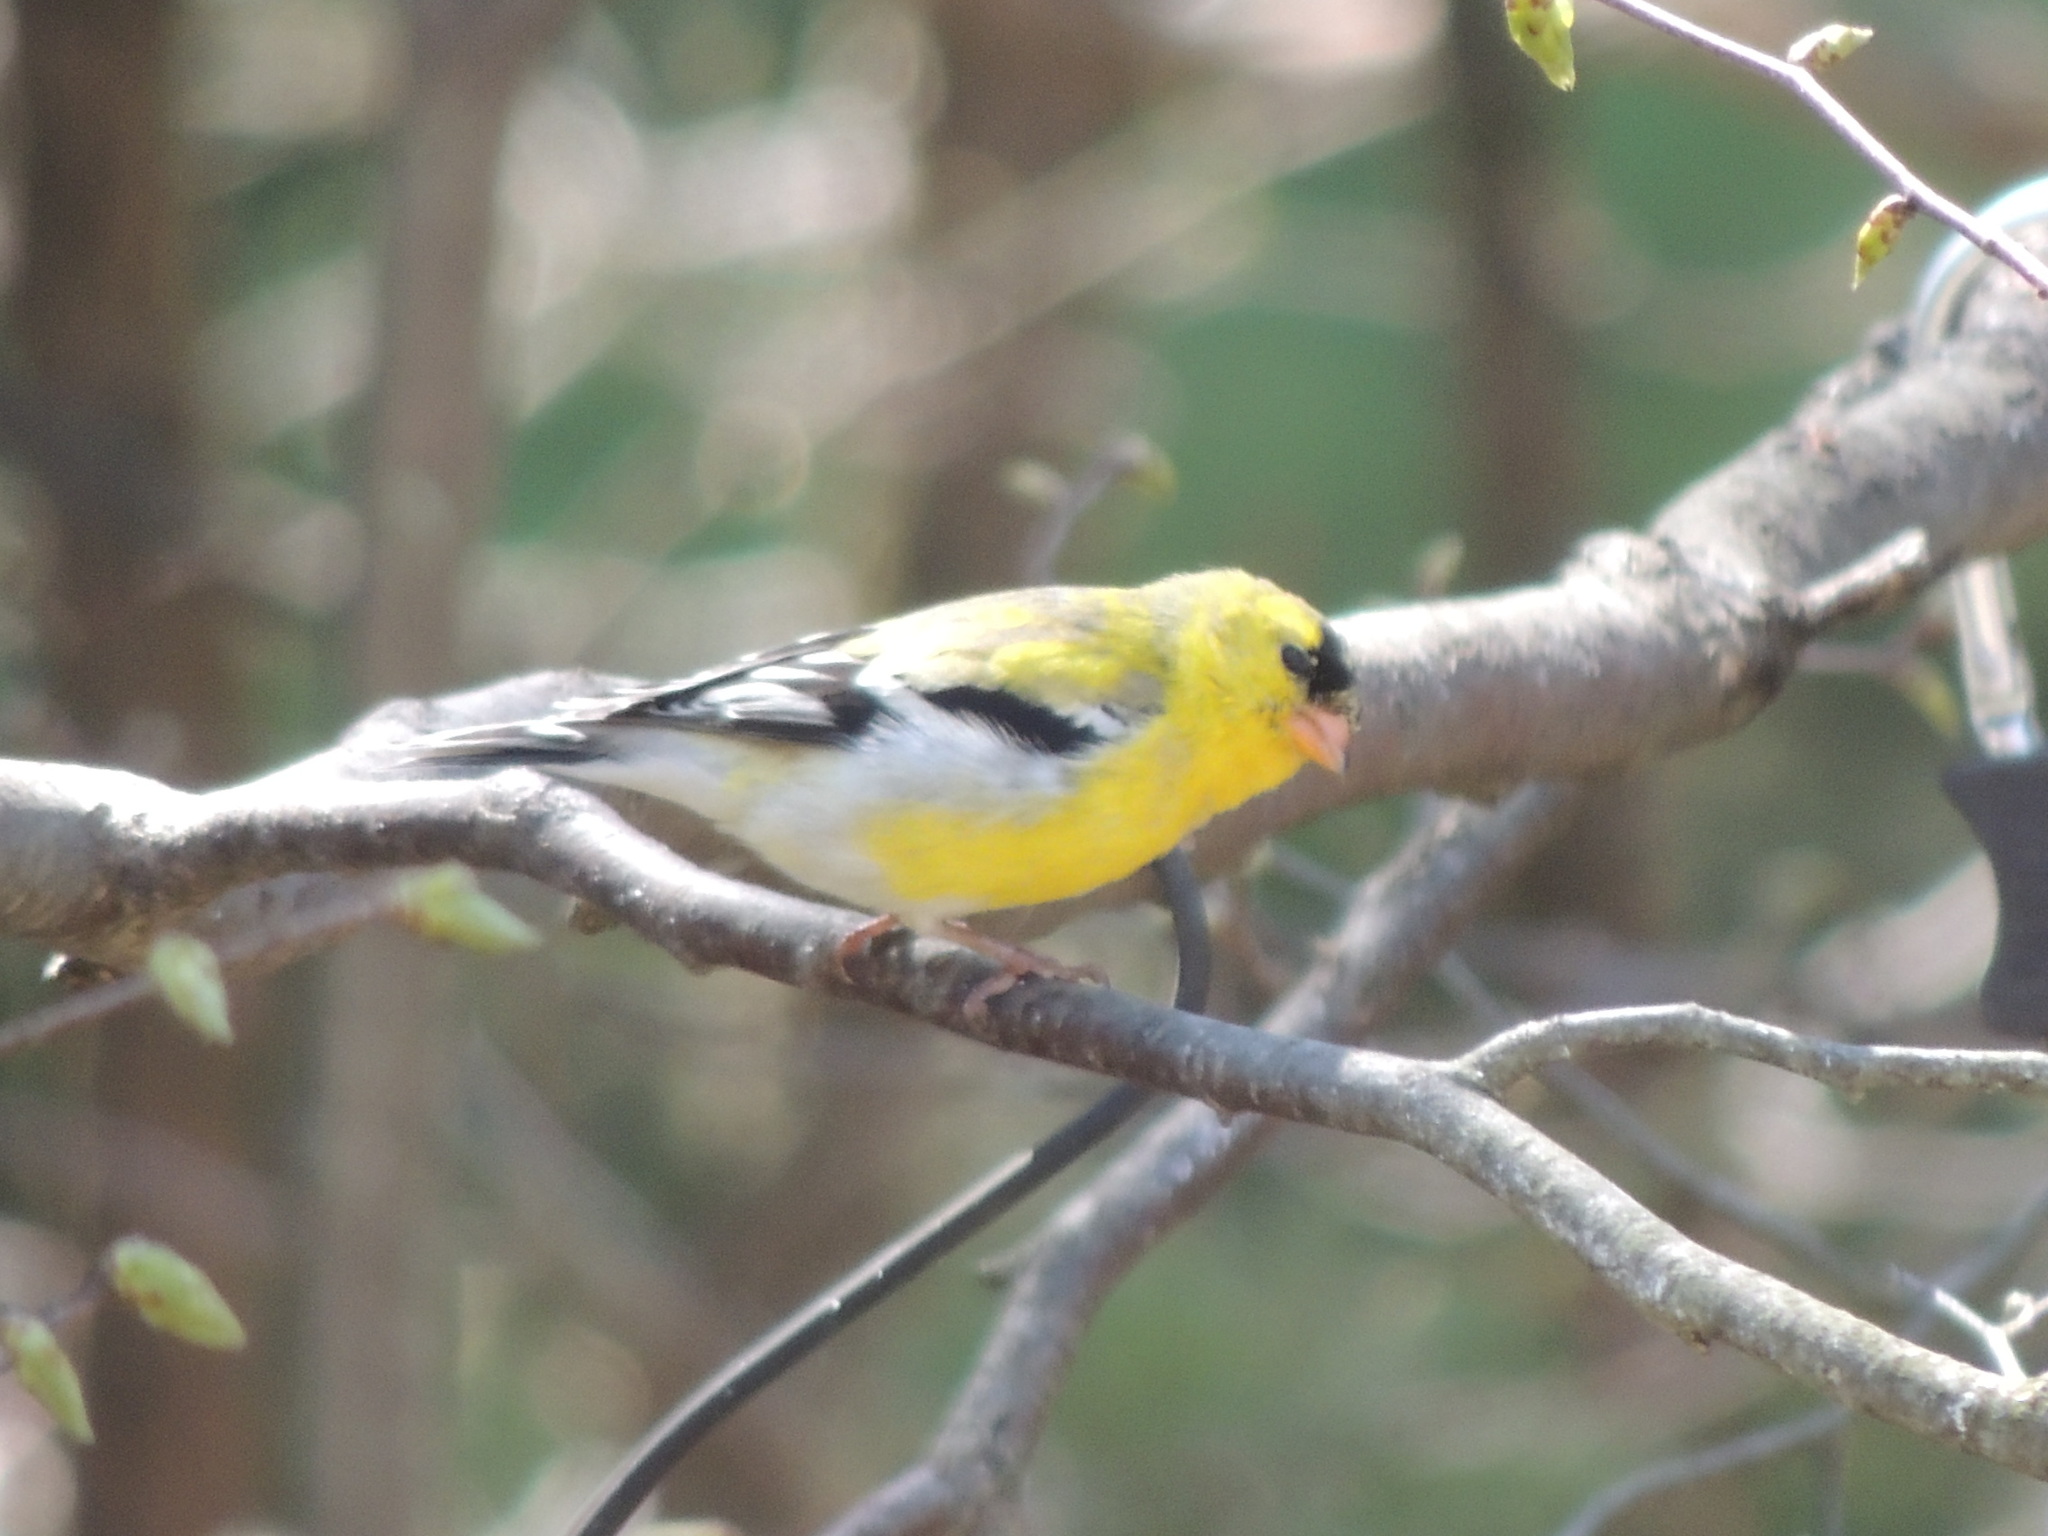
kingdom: Animalia
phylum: Chordata
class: Aves
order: Passeriformes
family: Fringillidae
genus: Spinus
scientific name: Spinus tristis
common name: American goldfinch
